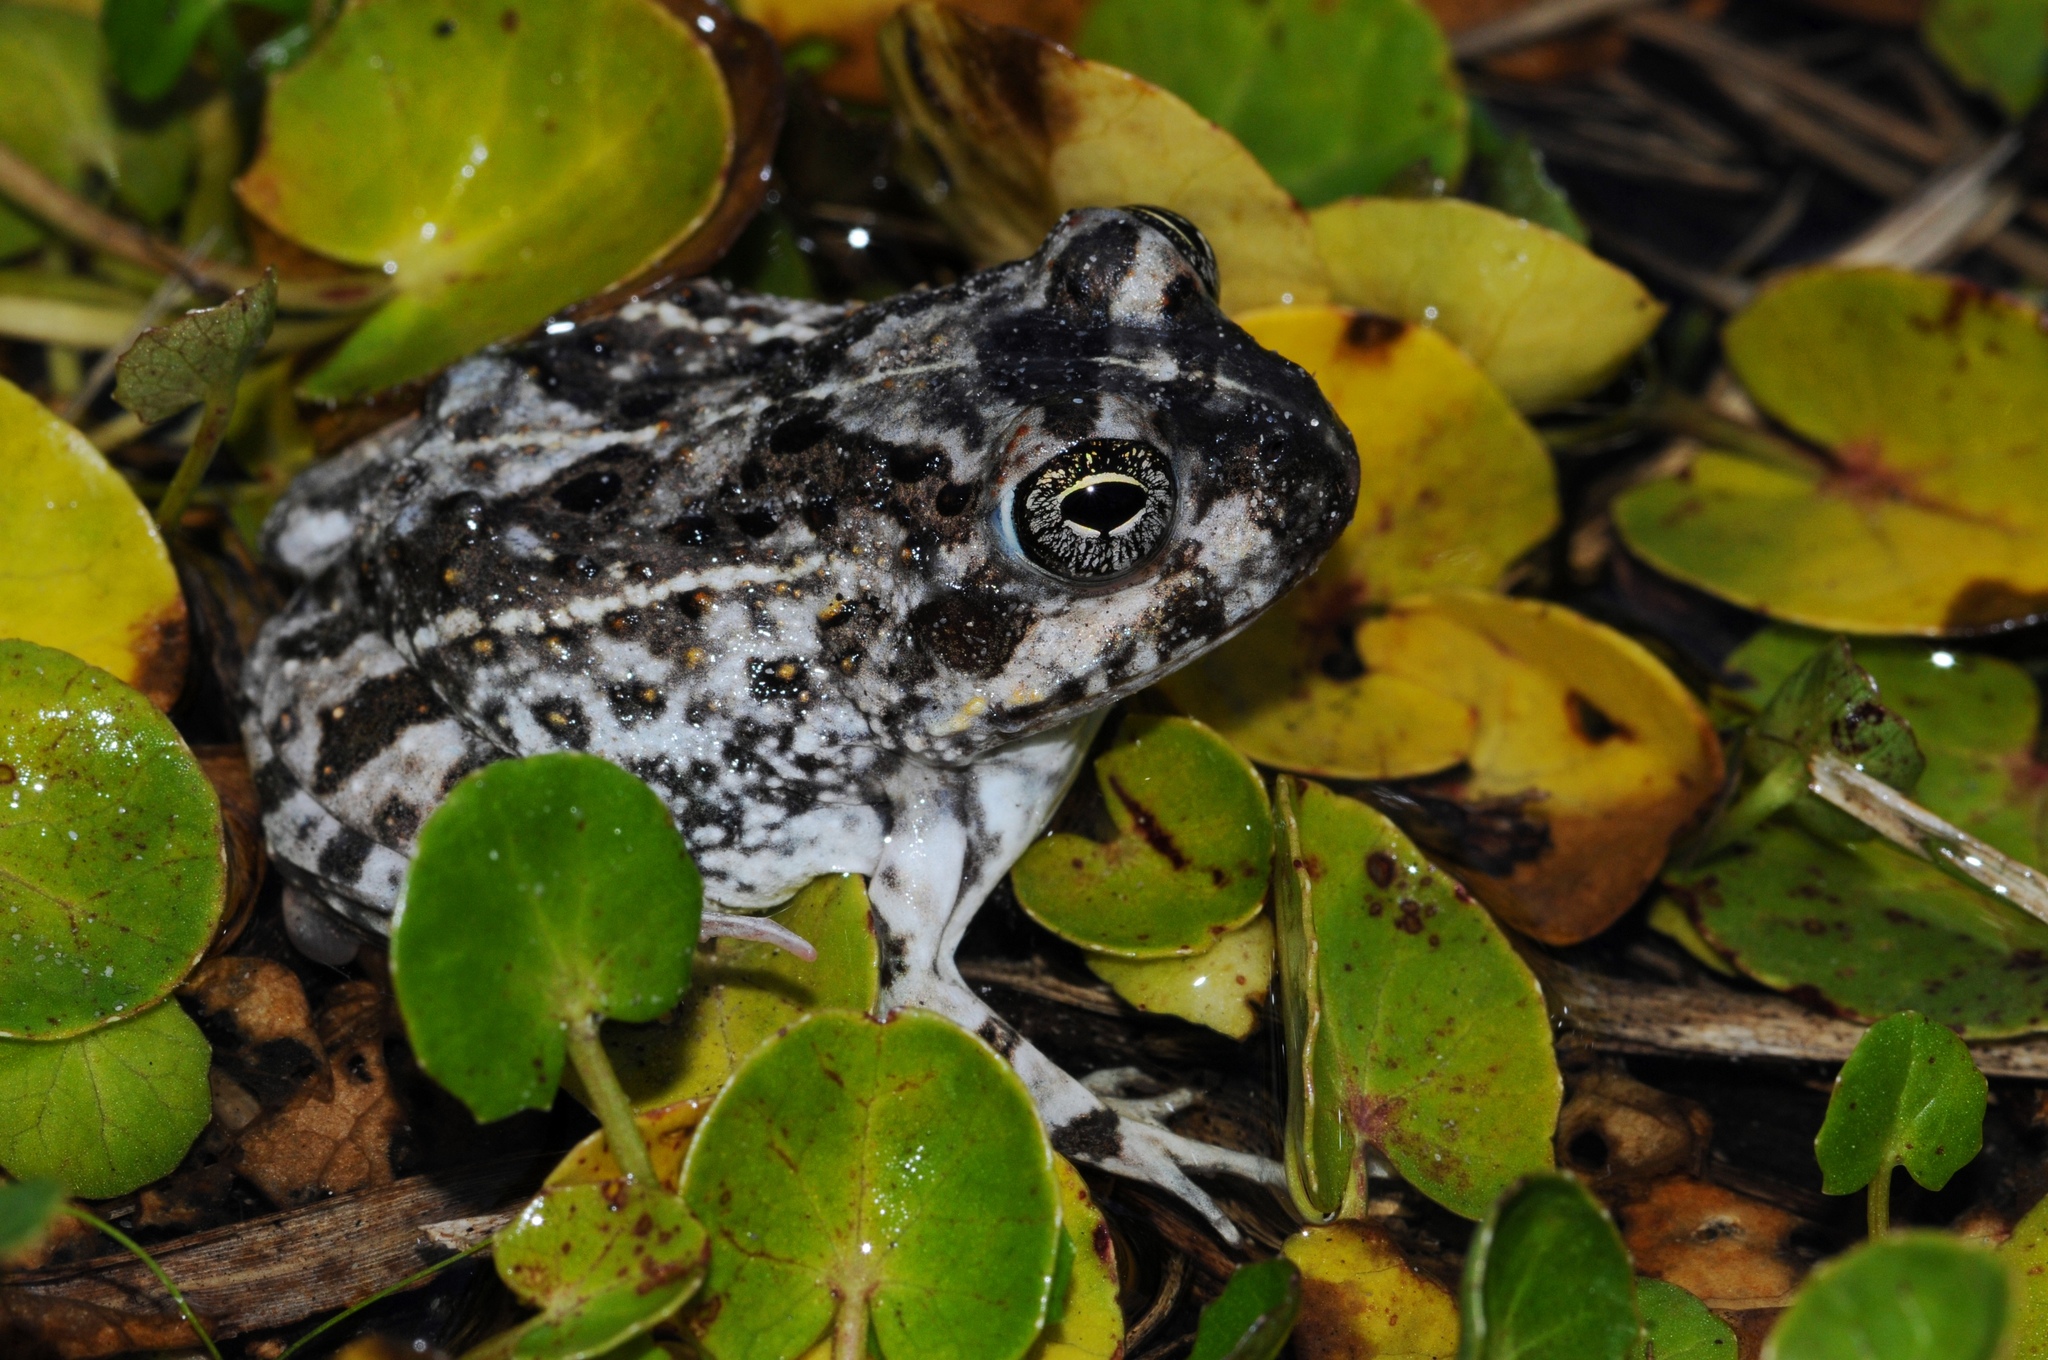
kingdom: Animalia
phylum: Chordata
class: Amphibia
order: Anura
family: Pyxicephalidae
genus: Tomopterna
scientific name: Tomopterna delalandii
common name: Delalande's burrowing bullfrog
